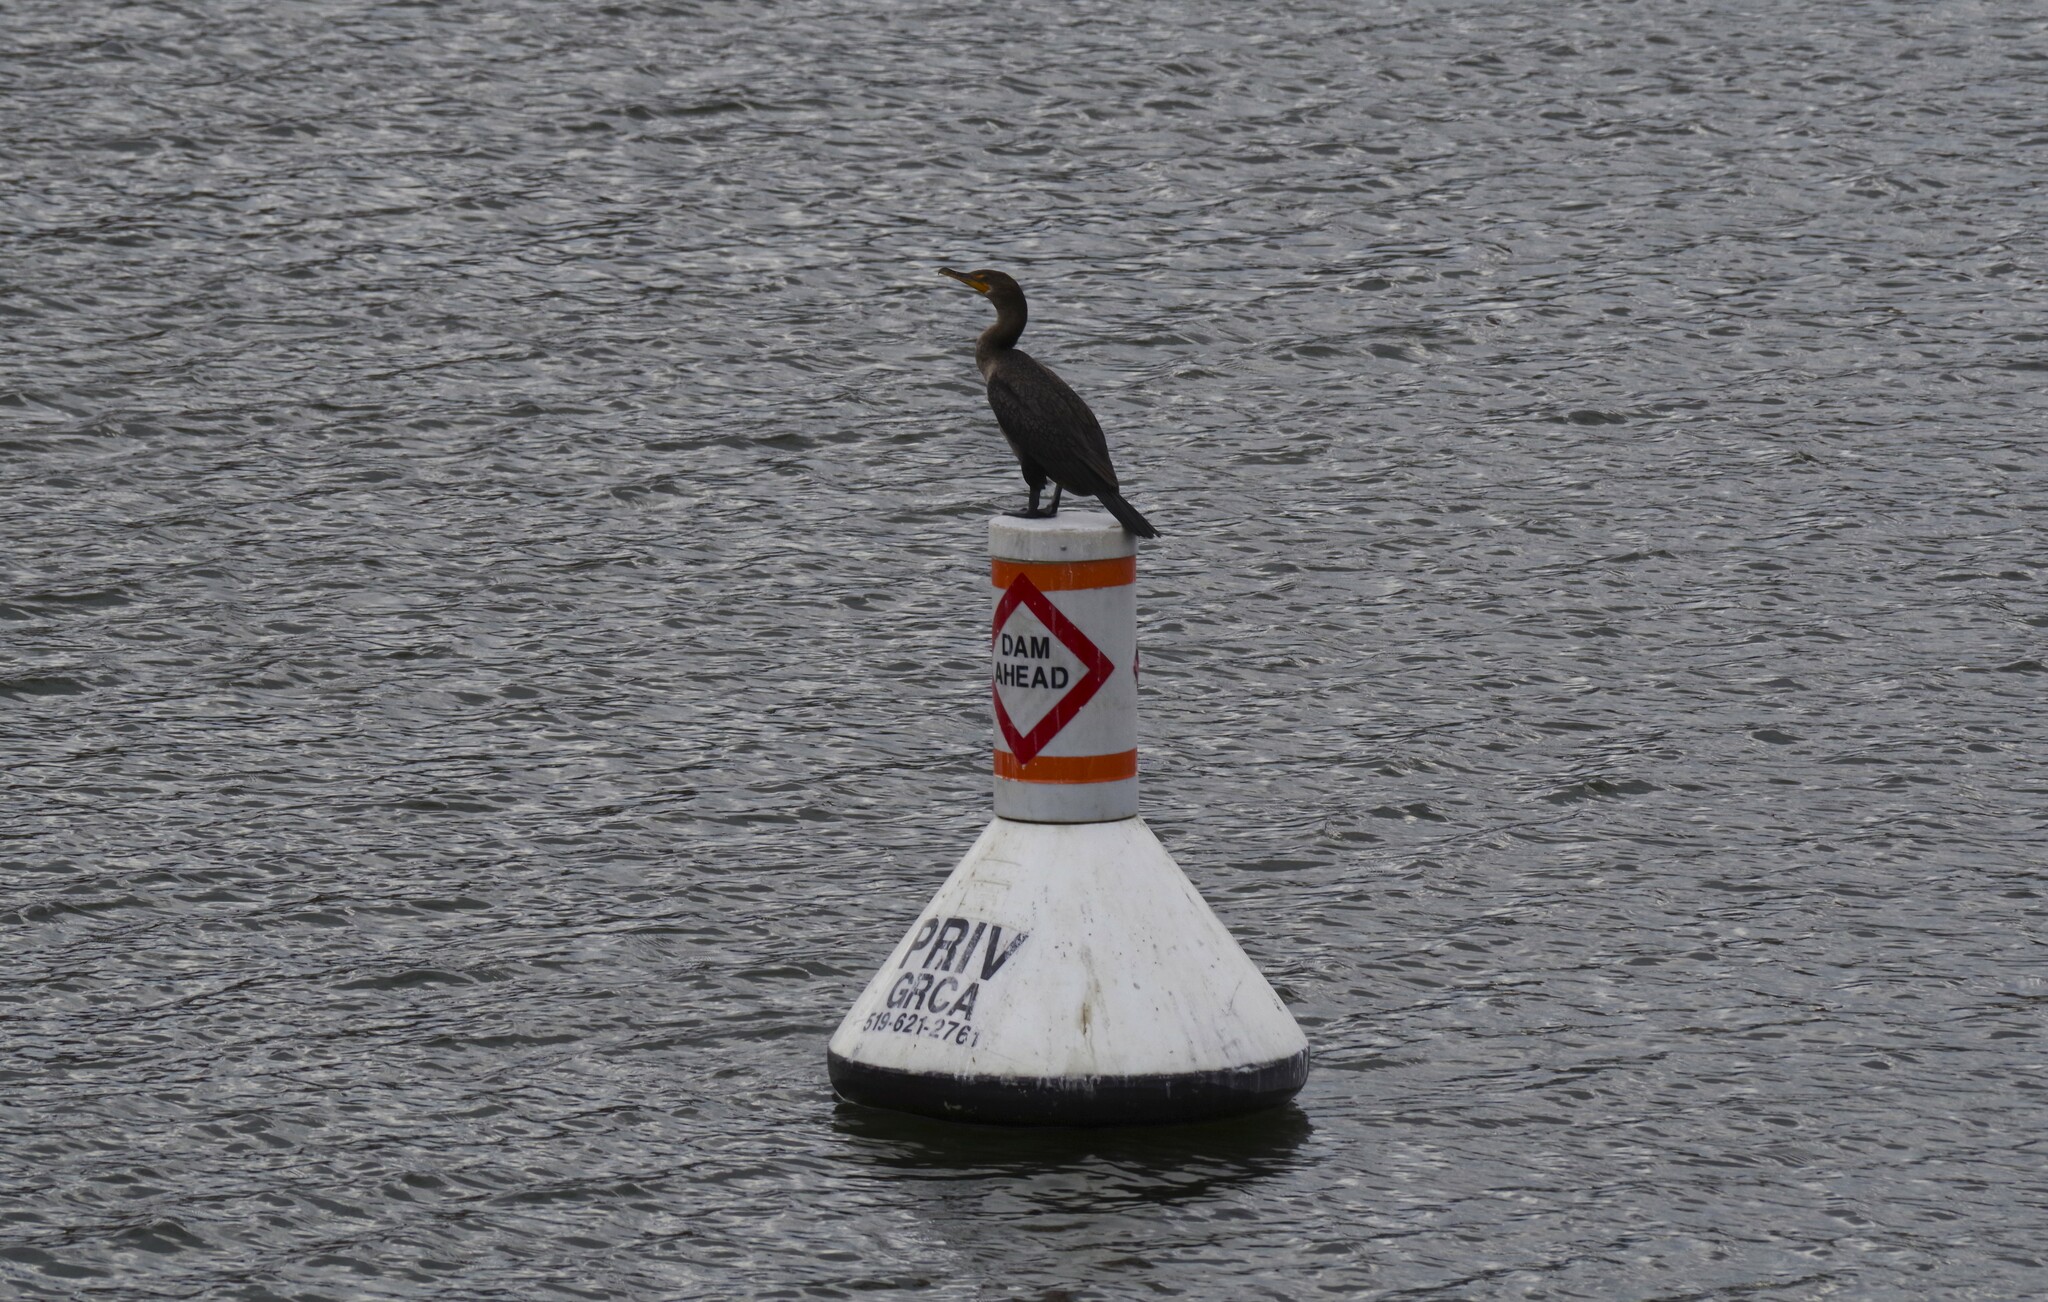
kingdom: Animalia
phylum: Chordata
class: Aves
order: Suliformes
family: Phalacrocoracidae
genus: Phalacrocorax
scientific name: Phalacrocorax auritus
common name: Double-crested cormorant
